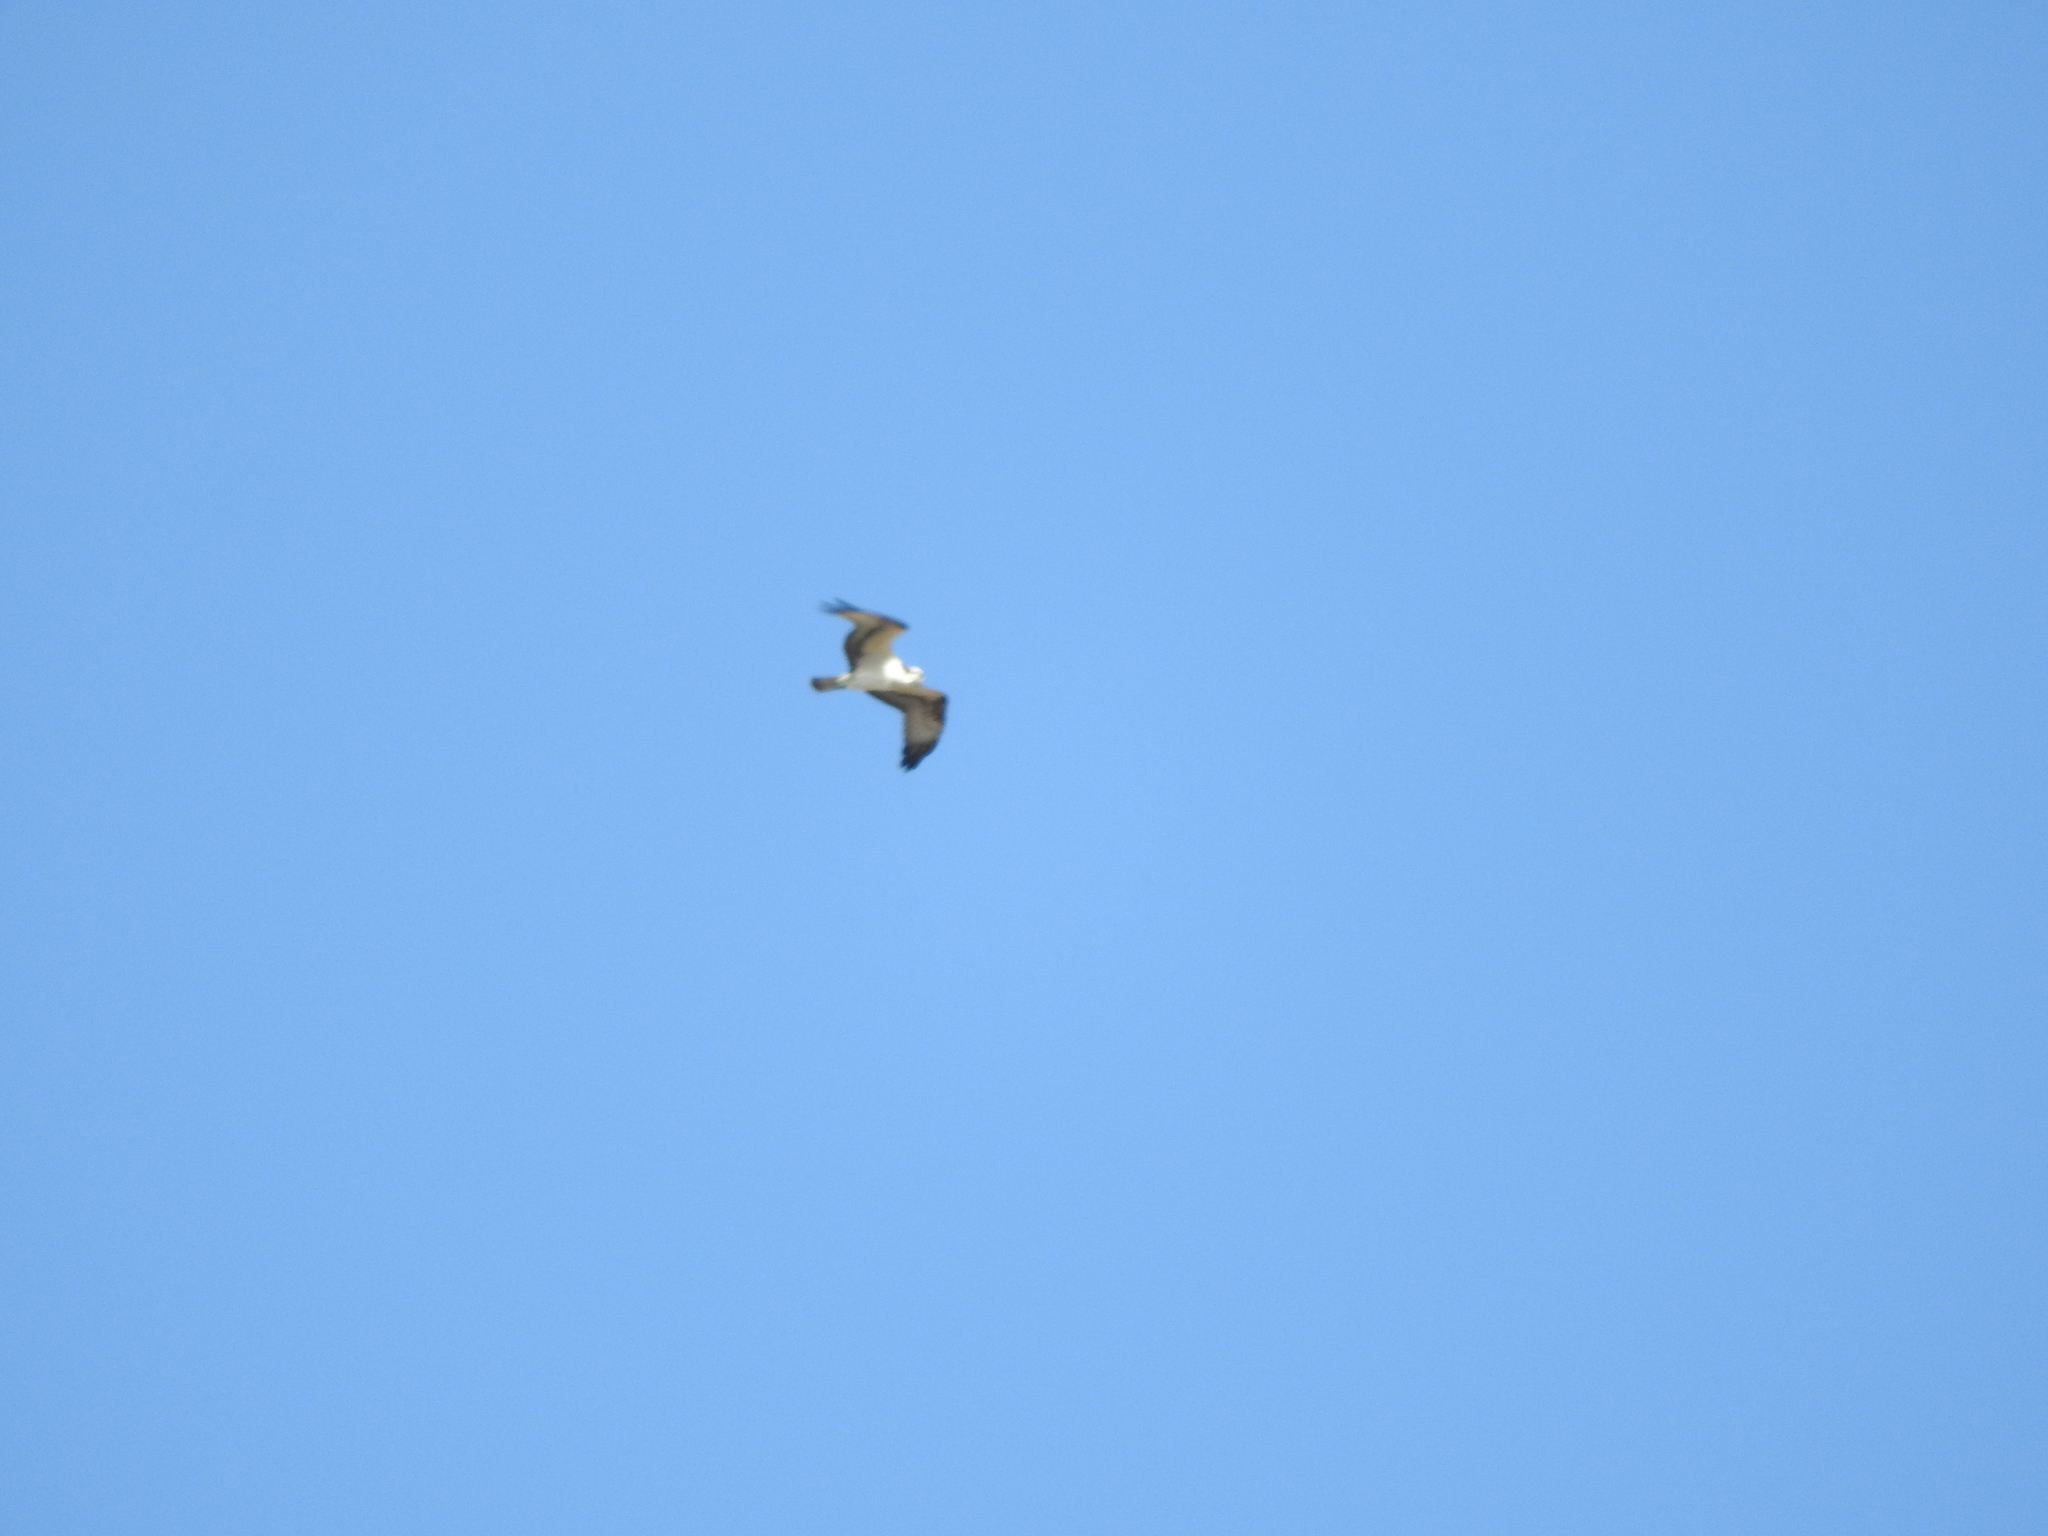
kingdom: Animalia
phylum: Chordata
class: Aves
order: Accipitriformes
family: Pandionidae
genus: Pandion
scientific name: Pandion haliaetus
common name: Osprey
